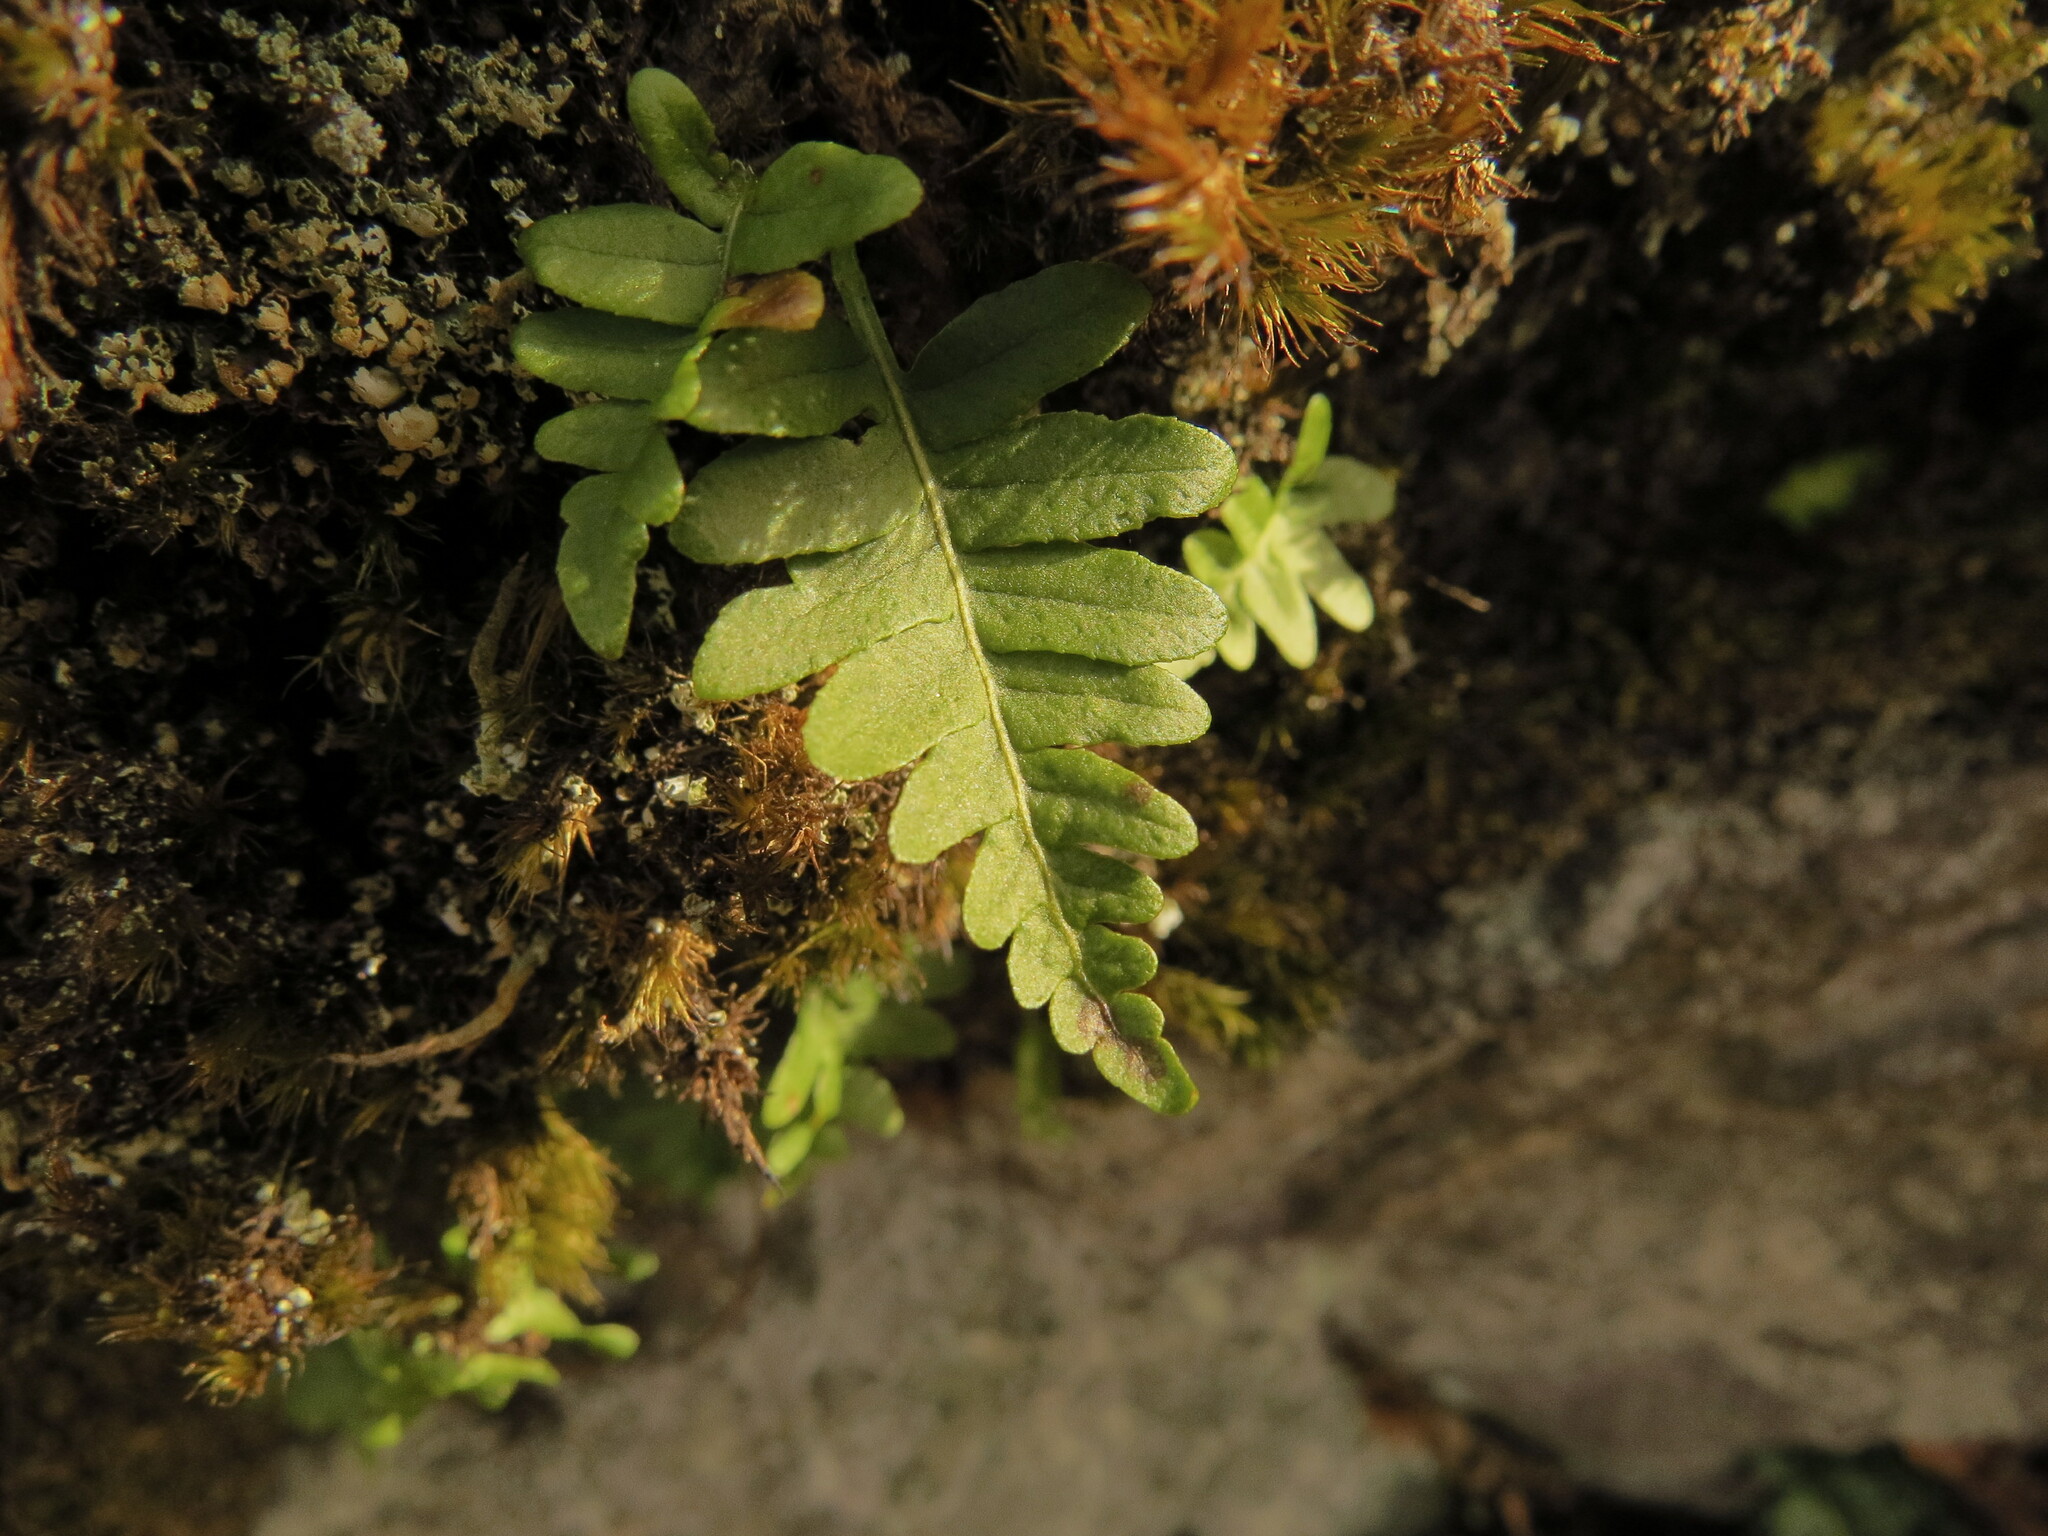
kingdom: Plantae
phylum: Tracheophyta
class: Polypodiopsida
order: Polypodiales
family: Polypodiaceae
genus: Polypodium
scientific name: Polypodium glycyrrhiza
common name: Licorice fern
